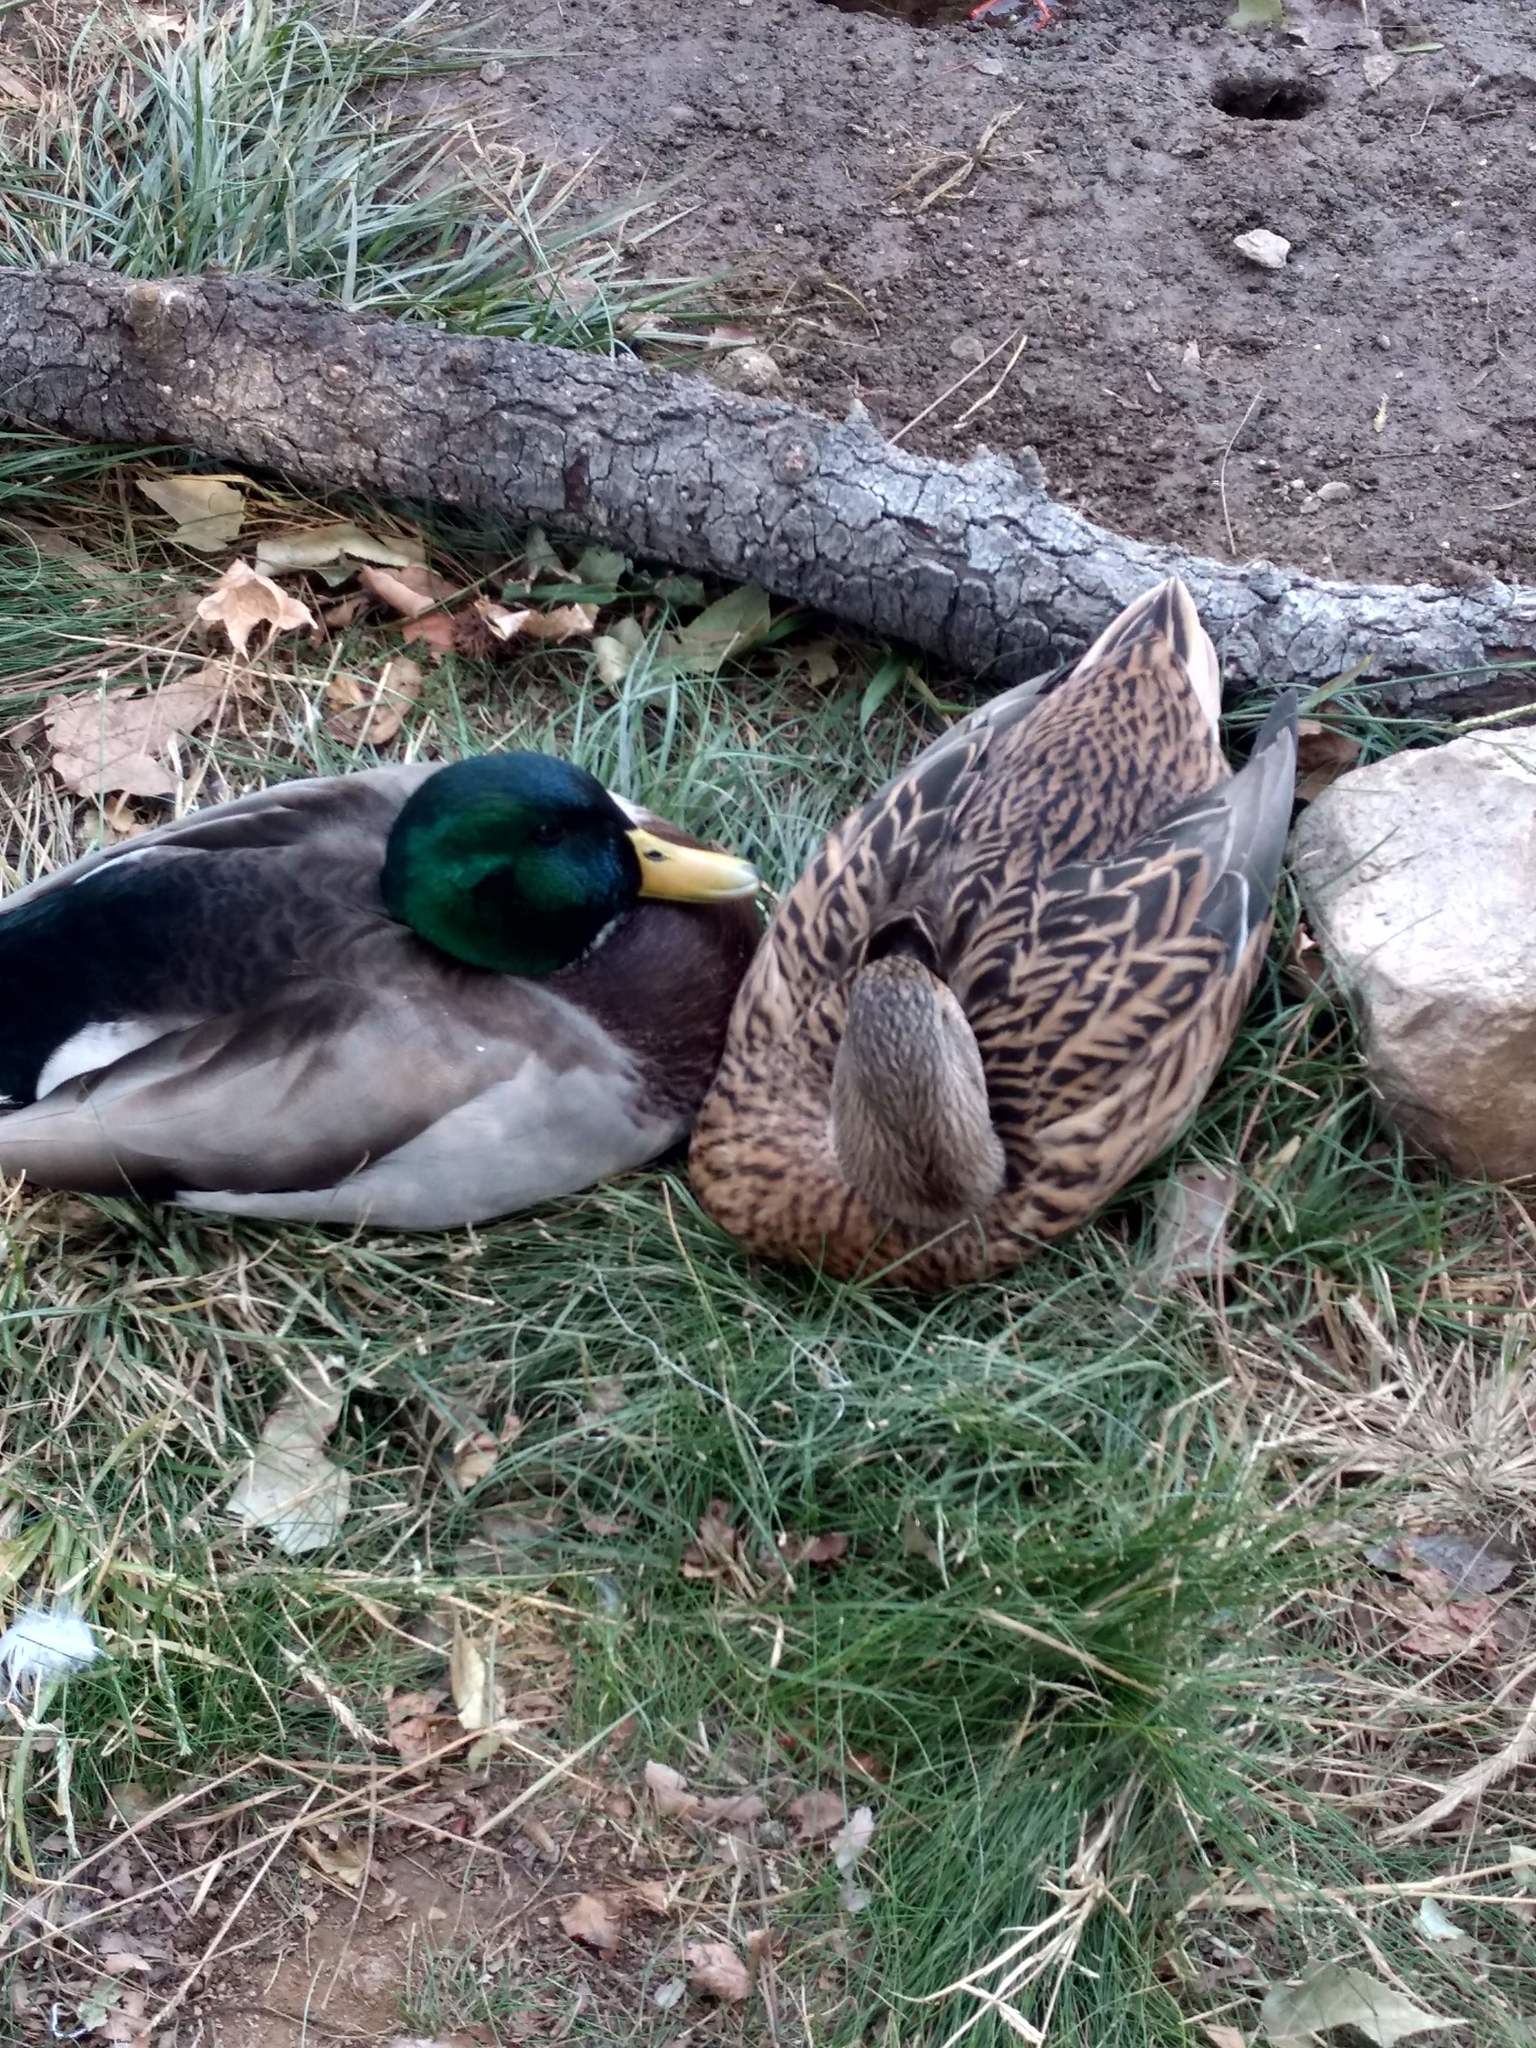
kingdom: Animalia
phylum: Chordata
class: Aves
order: Anseriformes
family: Anatidae
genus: Anas
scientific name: Anas platyrhynchos
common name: Mallard
